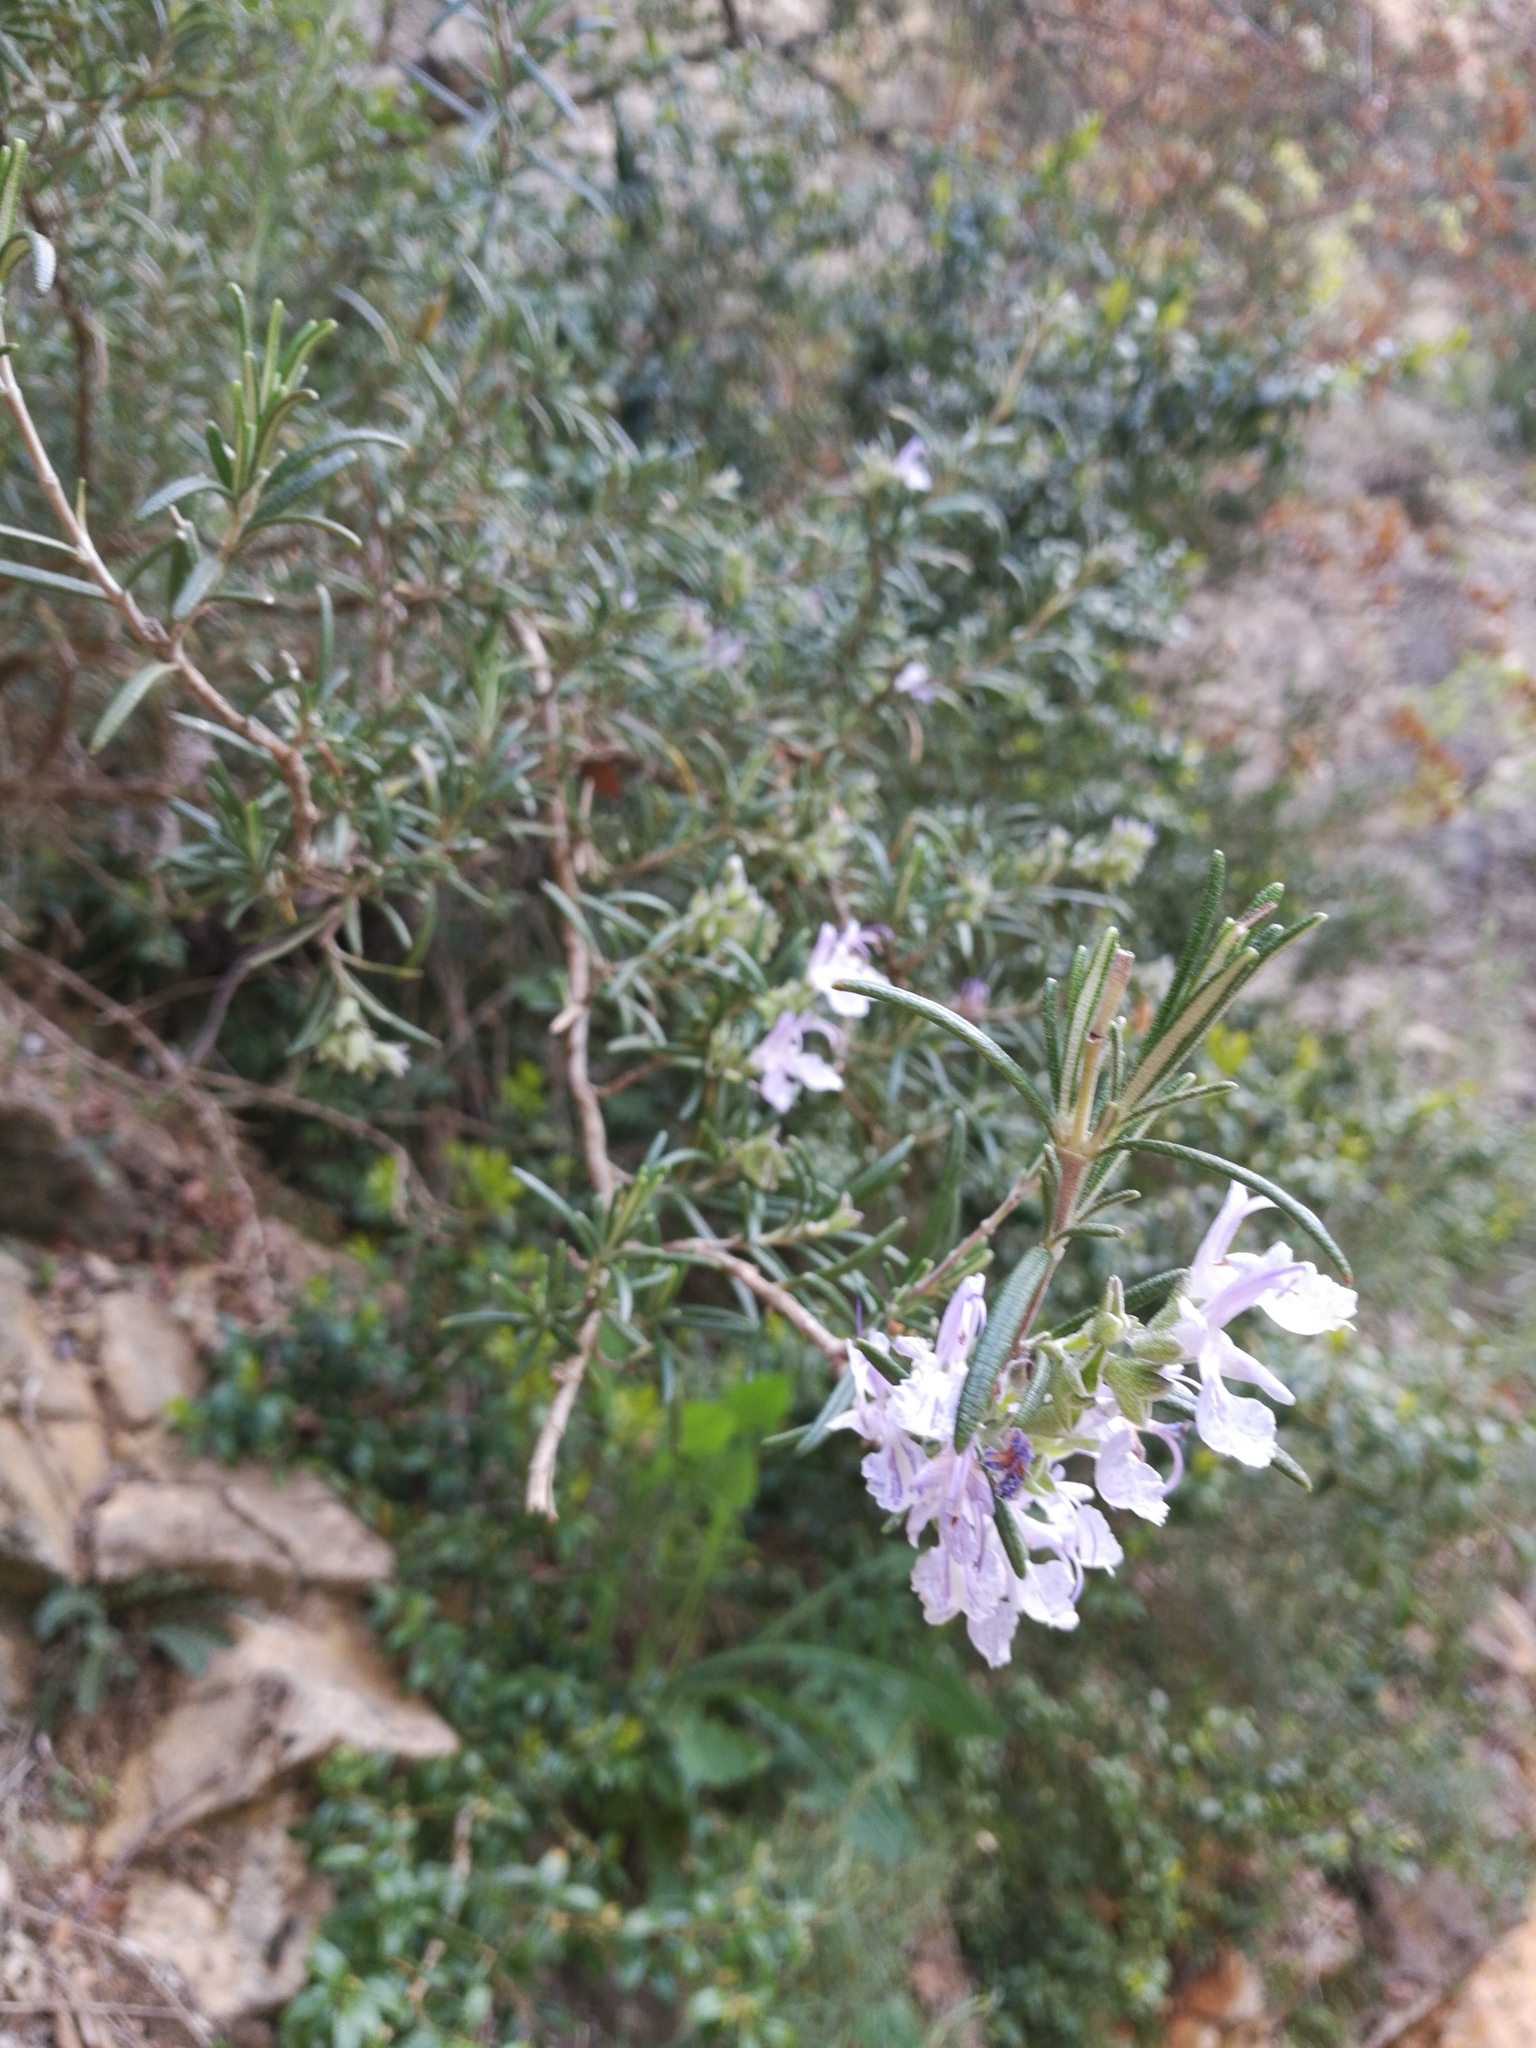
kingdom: Plantae
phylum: Tracheophyta
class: Magnoliopsida
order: Lamiales
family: Lamiaceae
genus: Salvia
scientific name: Salvia rosmarinus
